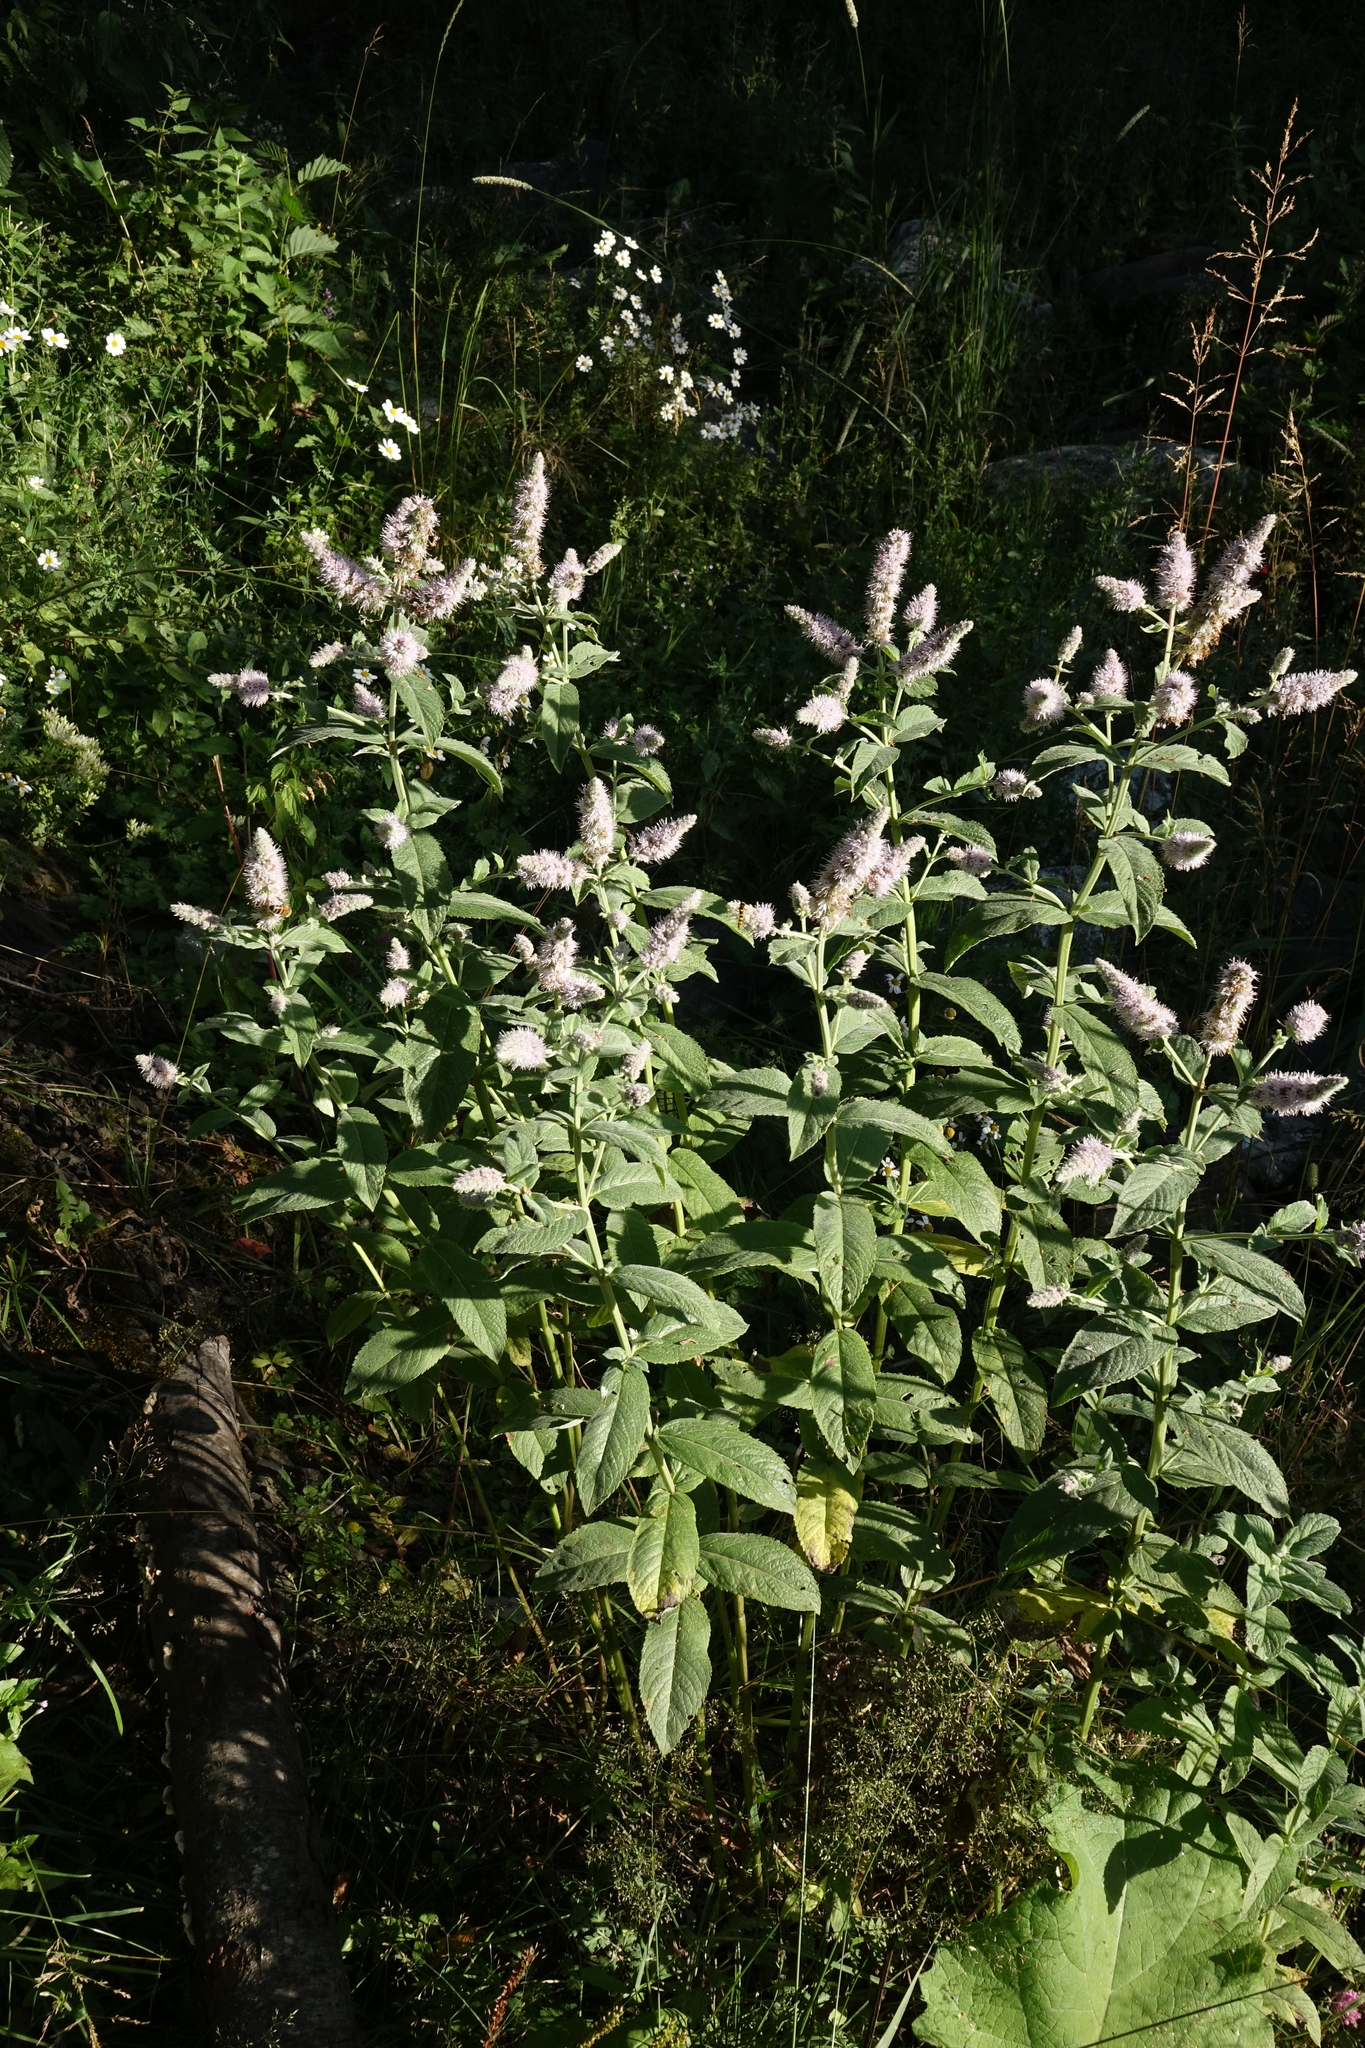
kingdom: Plantae
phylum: Tracheophyta
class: Magnoliopsida
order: Lamiales
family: Lamiaceae
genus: Mentha
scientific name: Mentha longifolia
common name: Horse mint
